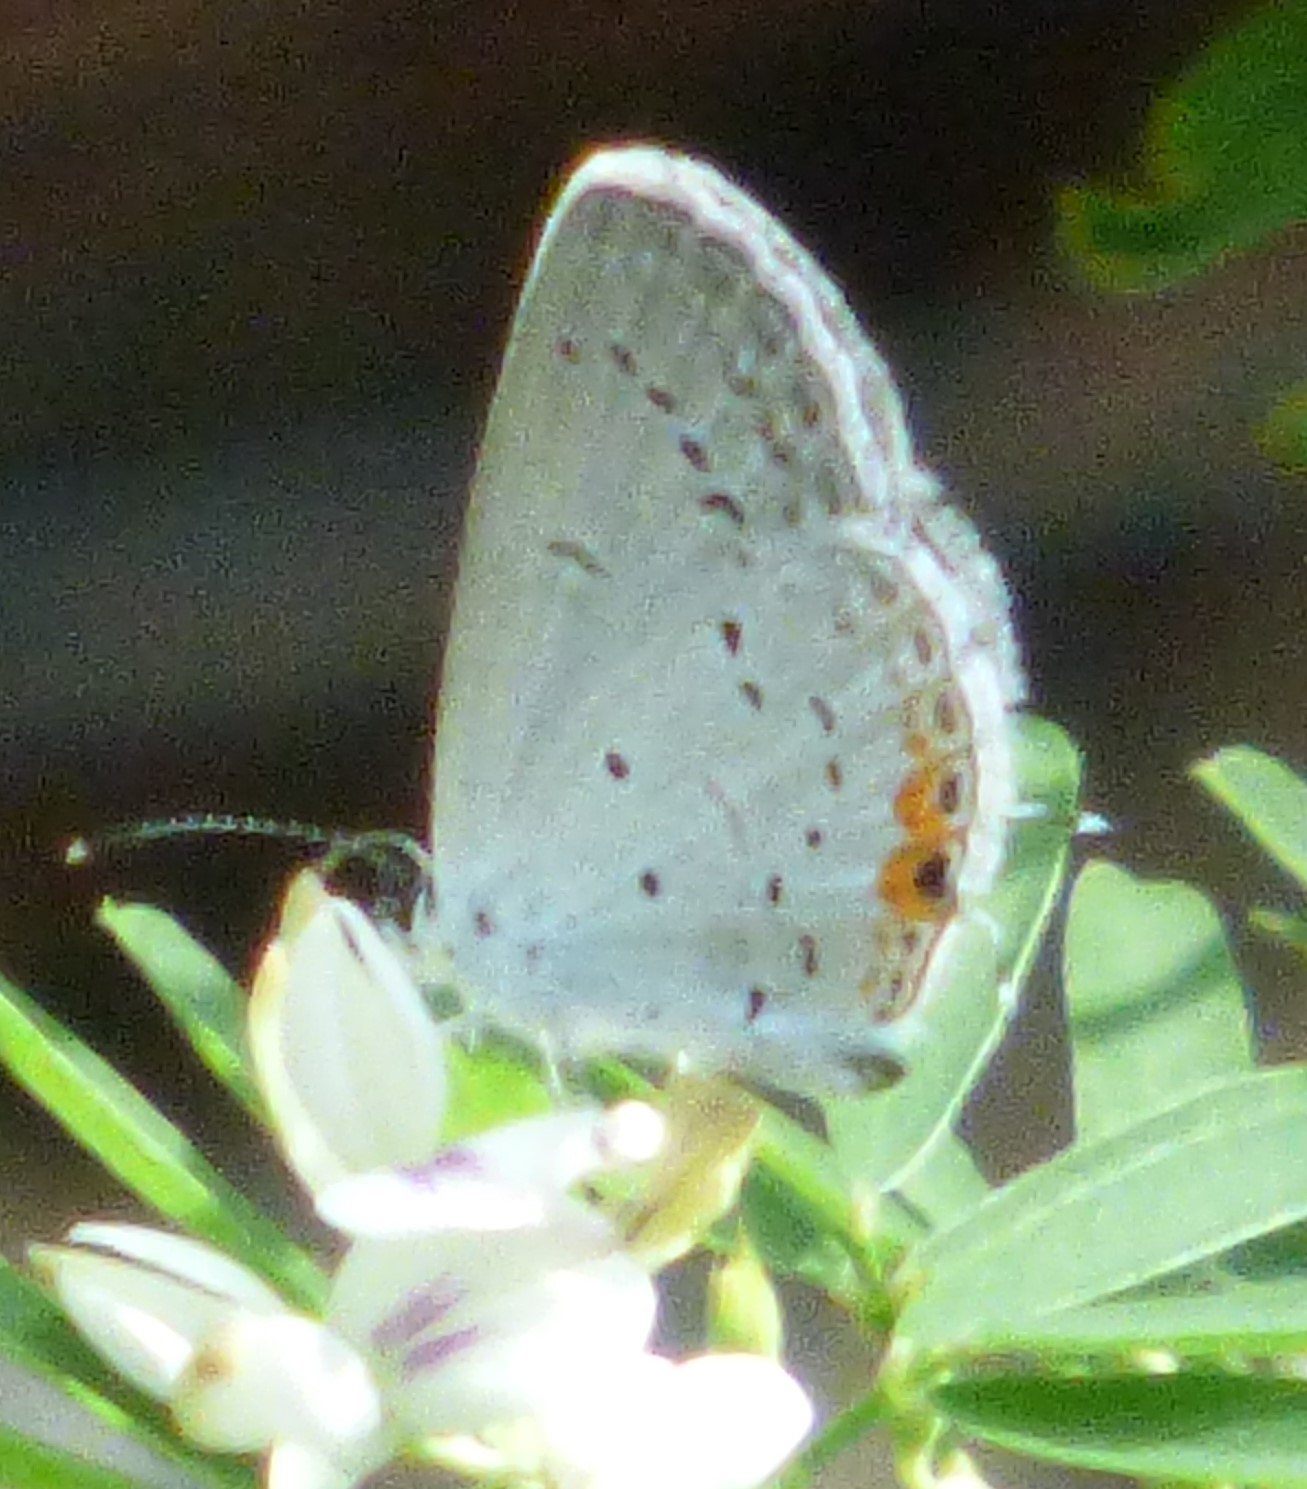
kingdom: Animalia
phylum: Arthropoda
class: Insecta
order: Lepidoptera
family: Lycaenidae
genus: Elkalyce
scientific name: Elkalyce comyntas
